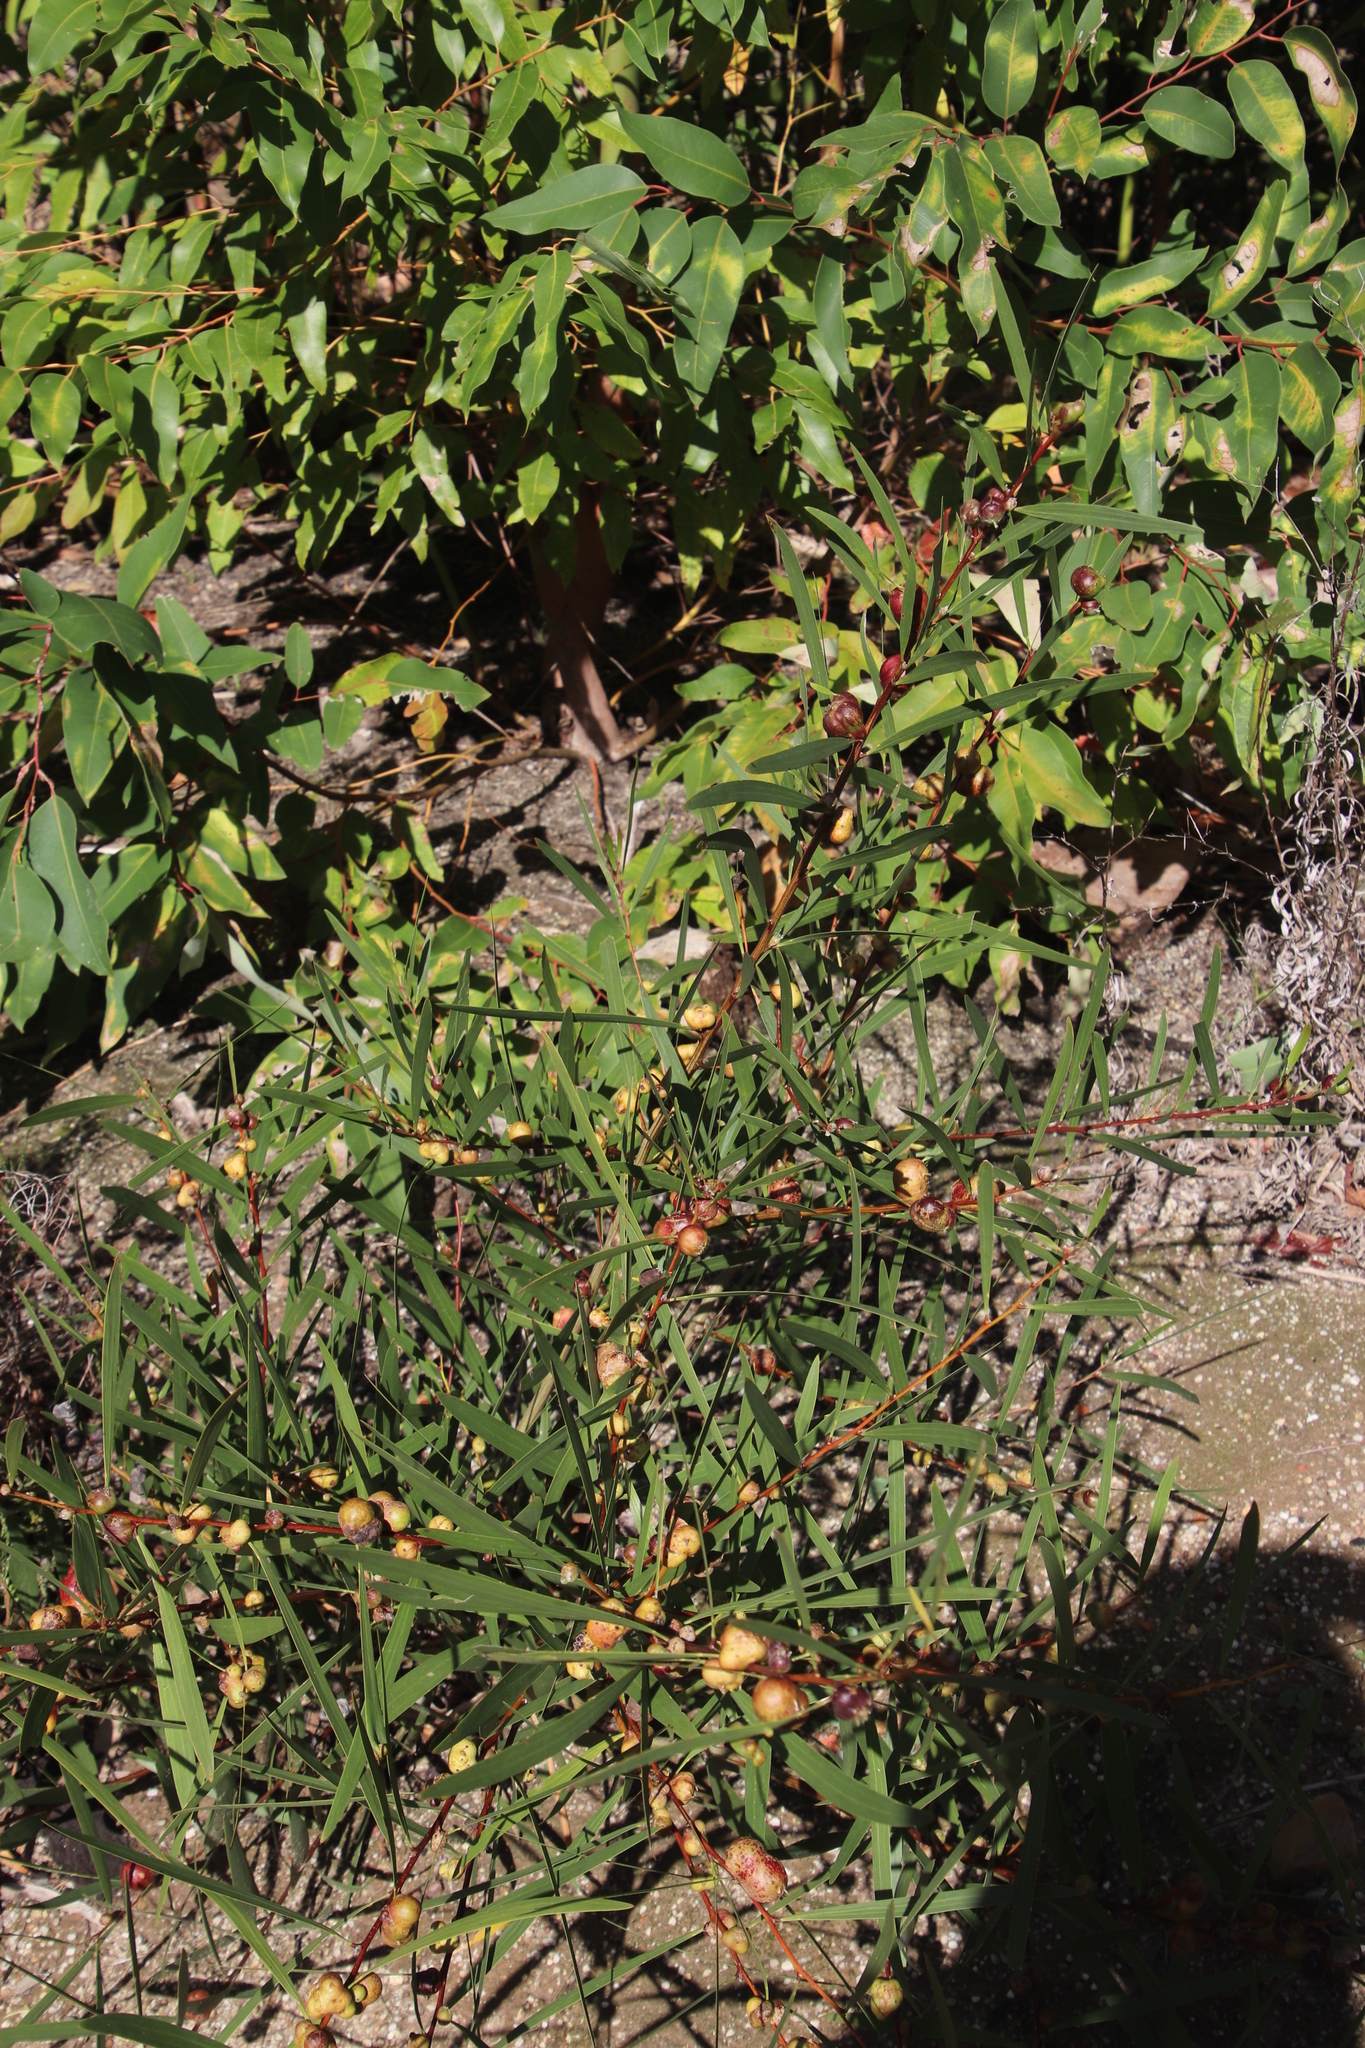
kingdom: Plantae
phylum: Tracheophyta
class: Magnoliopsida
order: Fabales
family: Fabaceae
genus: Acacia
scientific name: Acacia longifolia
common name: Sydney golden wattle
